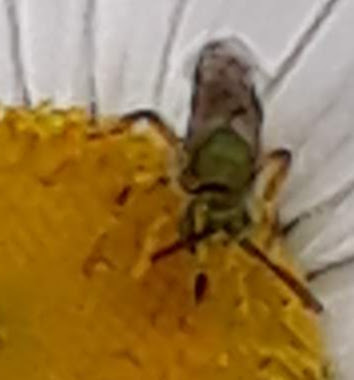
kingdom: Animalia
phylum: Arthropoda
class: Insecta
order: Hymenoptera
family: Halictidae
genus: Agapostemon
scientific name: Agapostemon virescens
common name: Bicolored striped sweat bee
